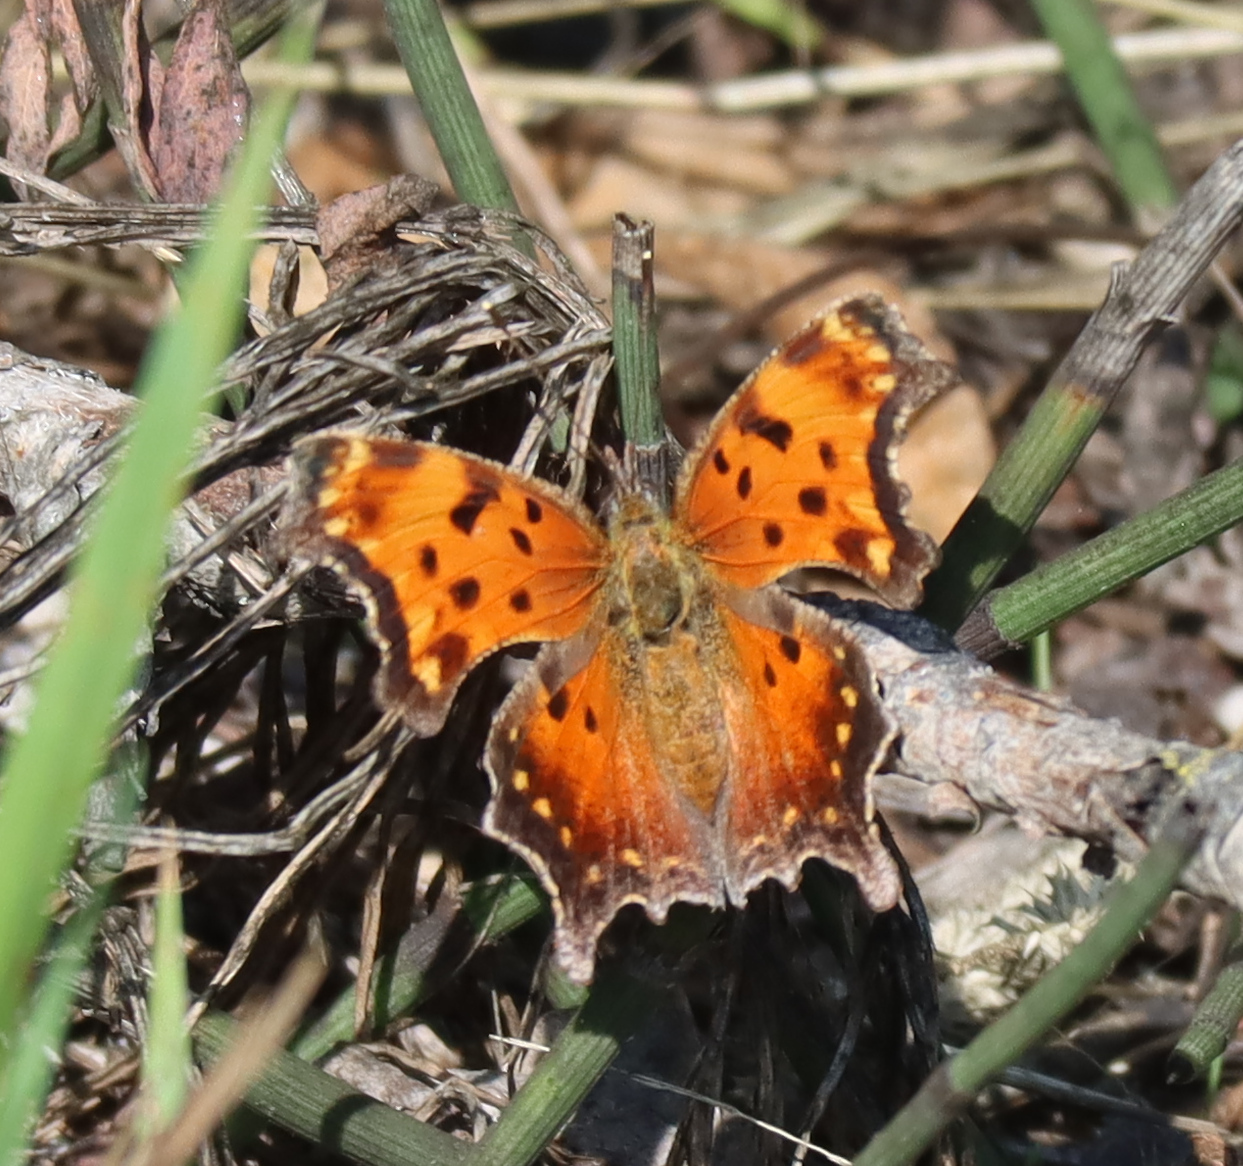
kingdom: Animalia
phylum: Arthropoda
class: Insecta
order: Lepidoptera
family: Nymphalidae
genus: Polygonia
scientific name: Polygonia progne
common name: Gray comma
